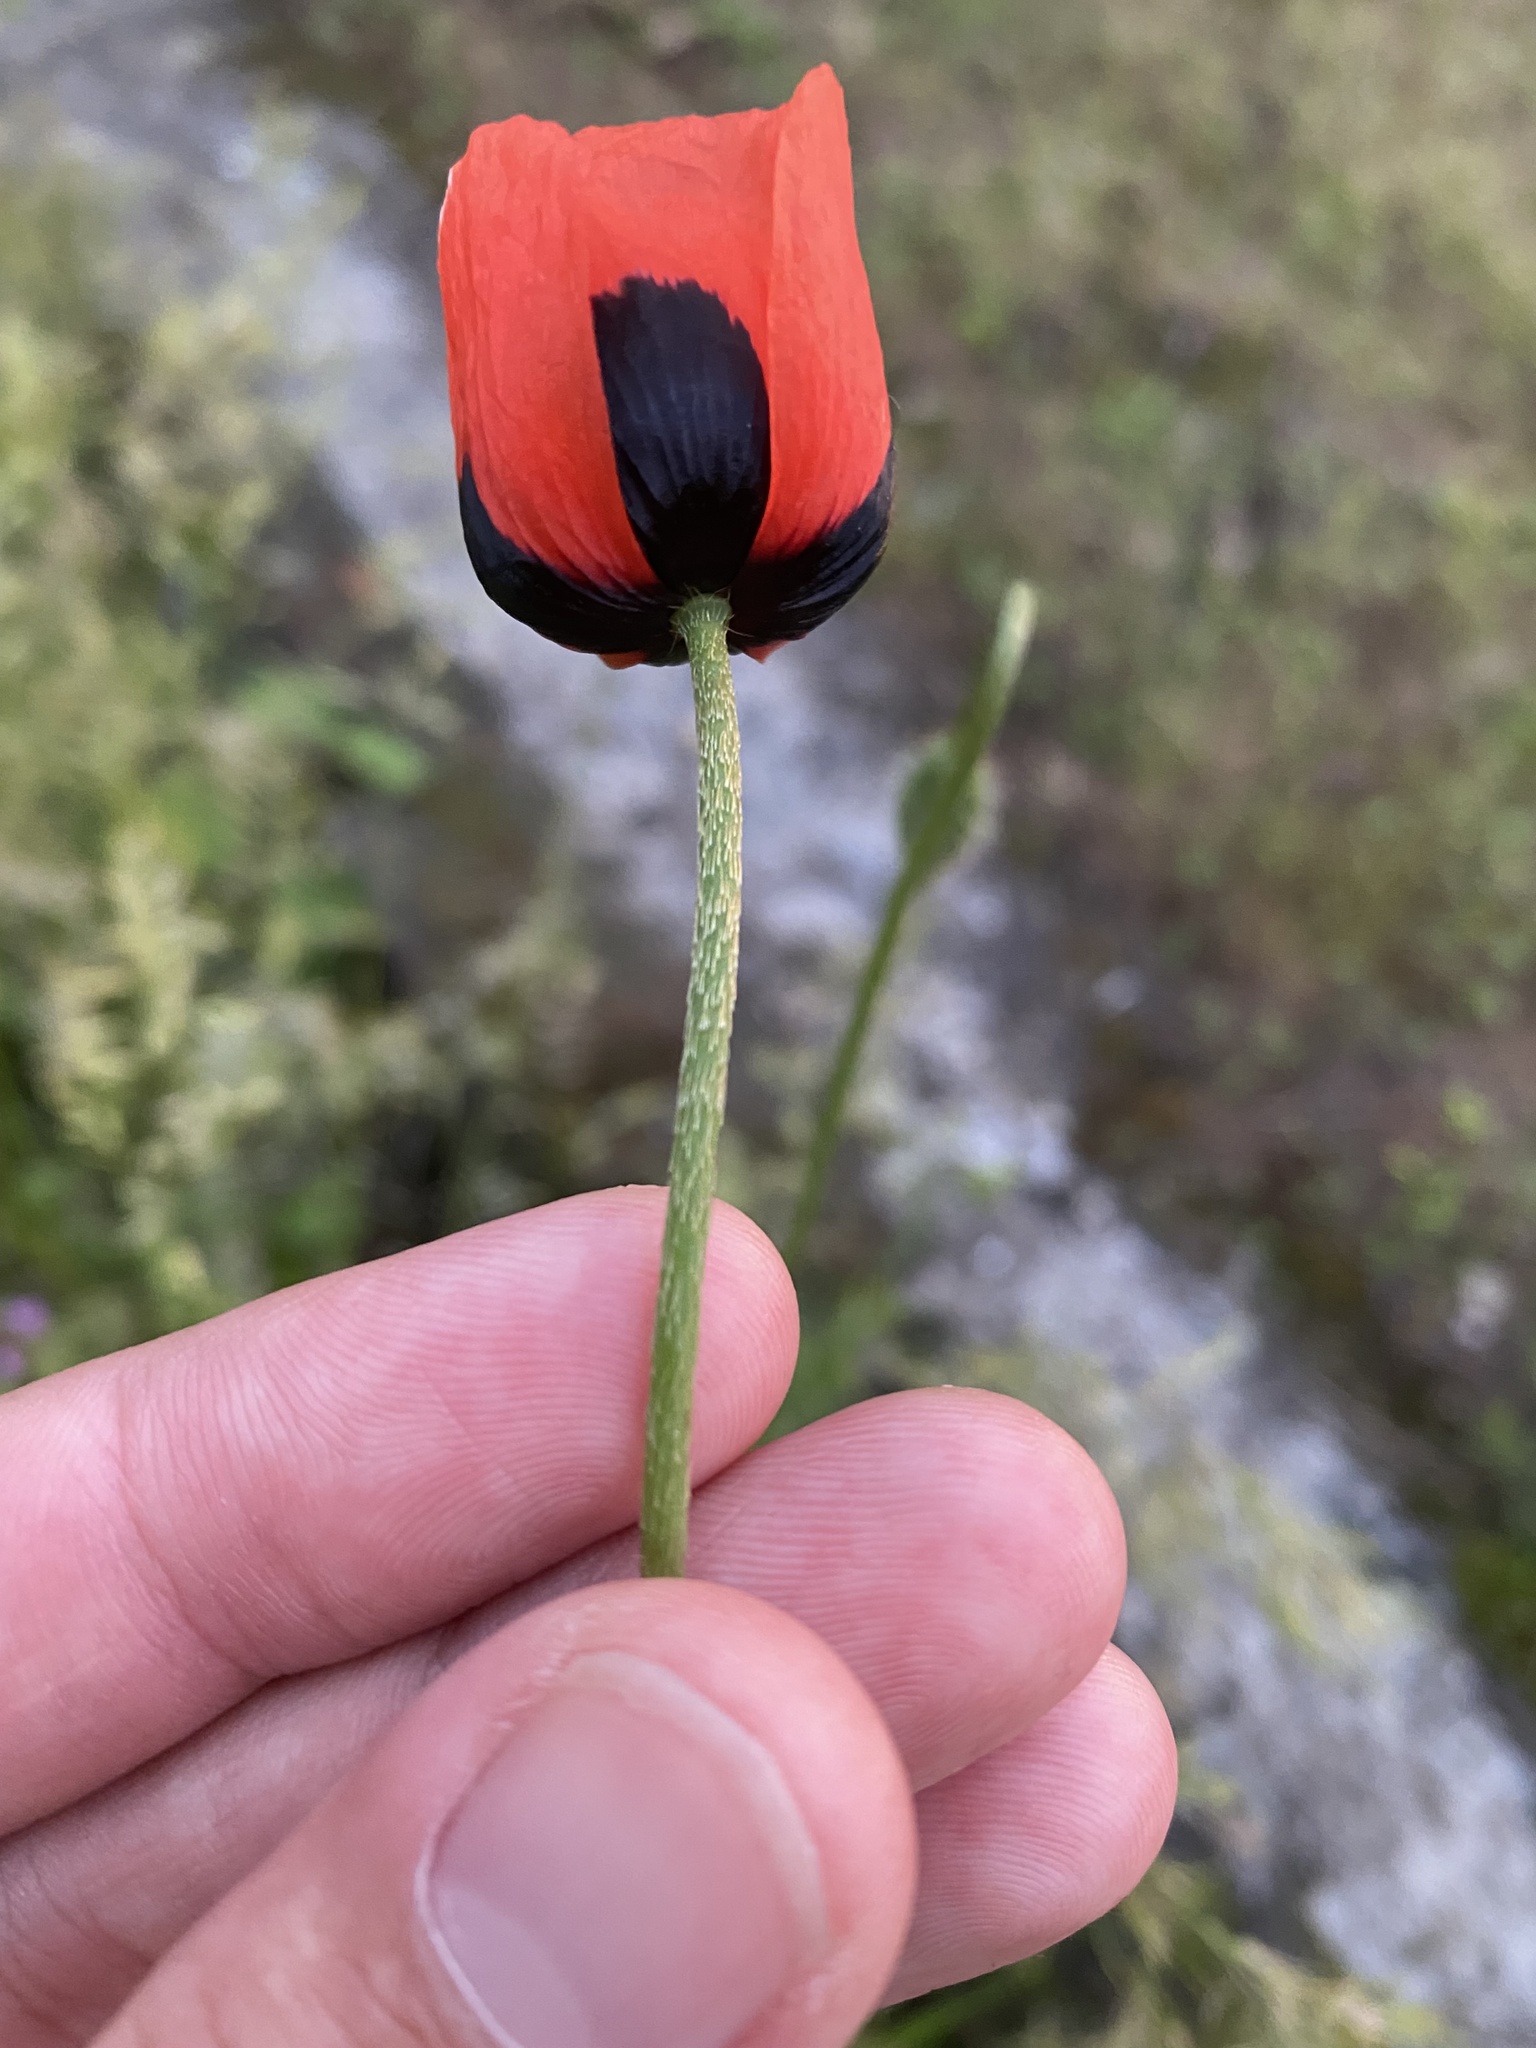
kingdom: Plantae
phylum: Tracheophyta
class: Magnoliopsida
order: Ranunculales
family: Papaveraceae
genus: Papaver
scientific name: Papaver dubium
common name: Long-headed poppy
